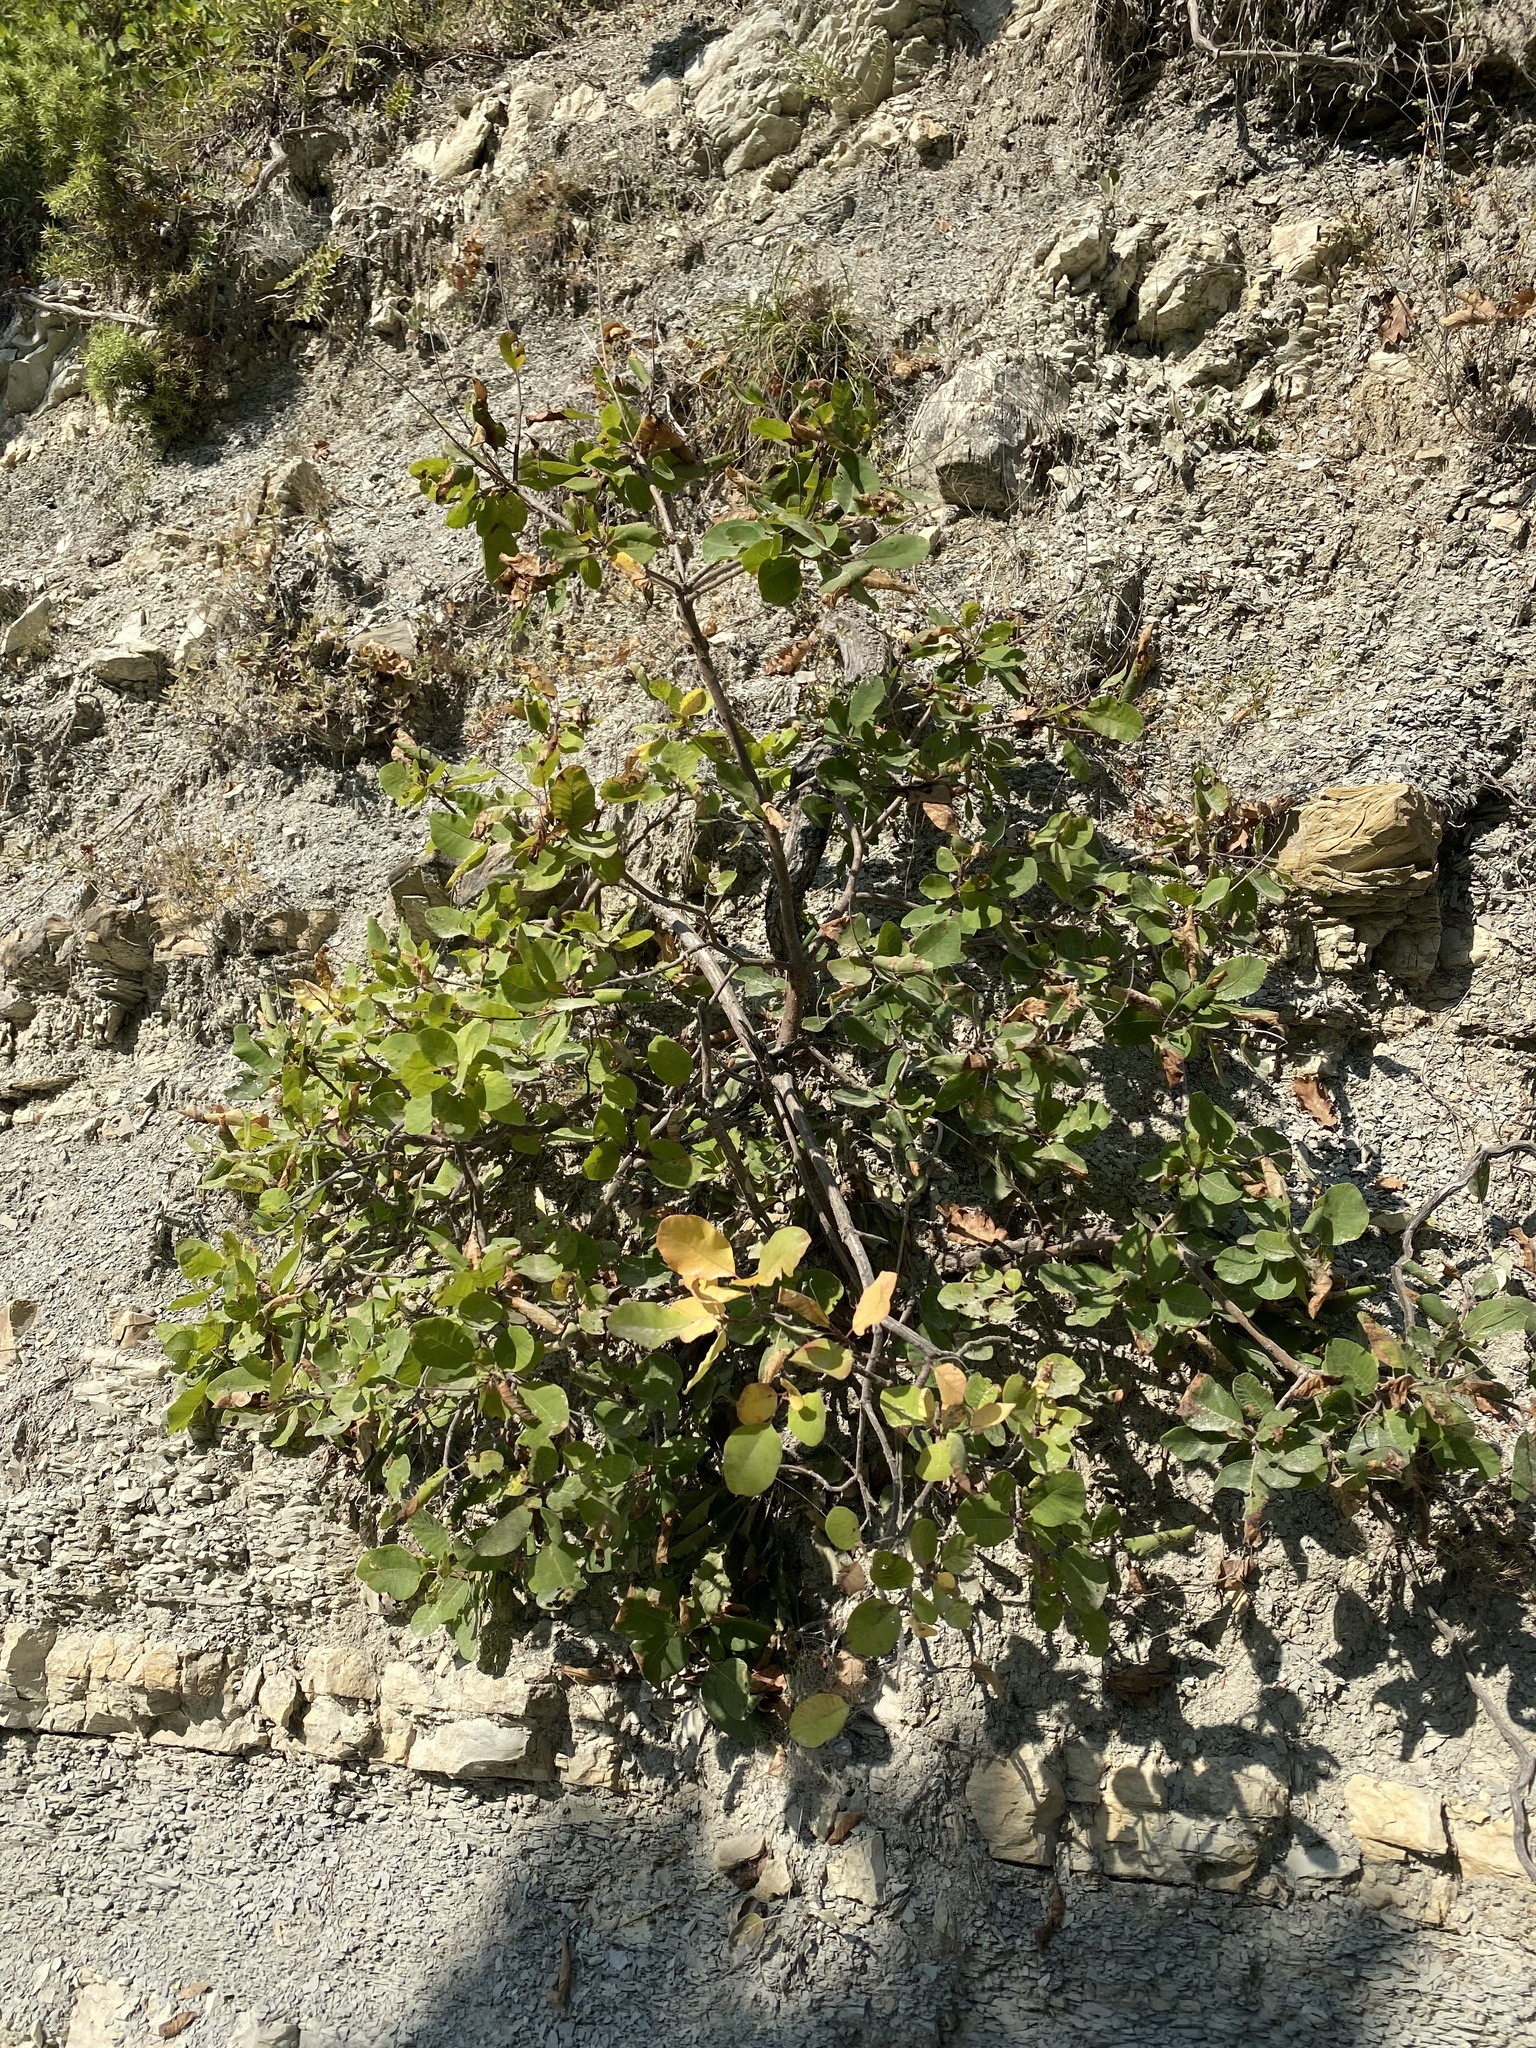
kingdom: Plantae
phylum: Tracheophyta
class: Magnoliopsida
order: Sapindales
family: Anacardiaceae
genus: Cotinus
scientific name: Cotinus coggygria
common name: Smoke-tree
